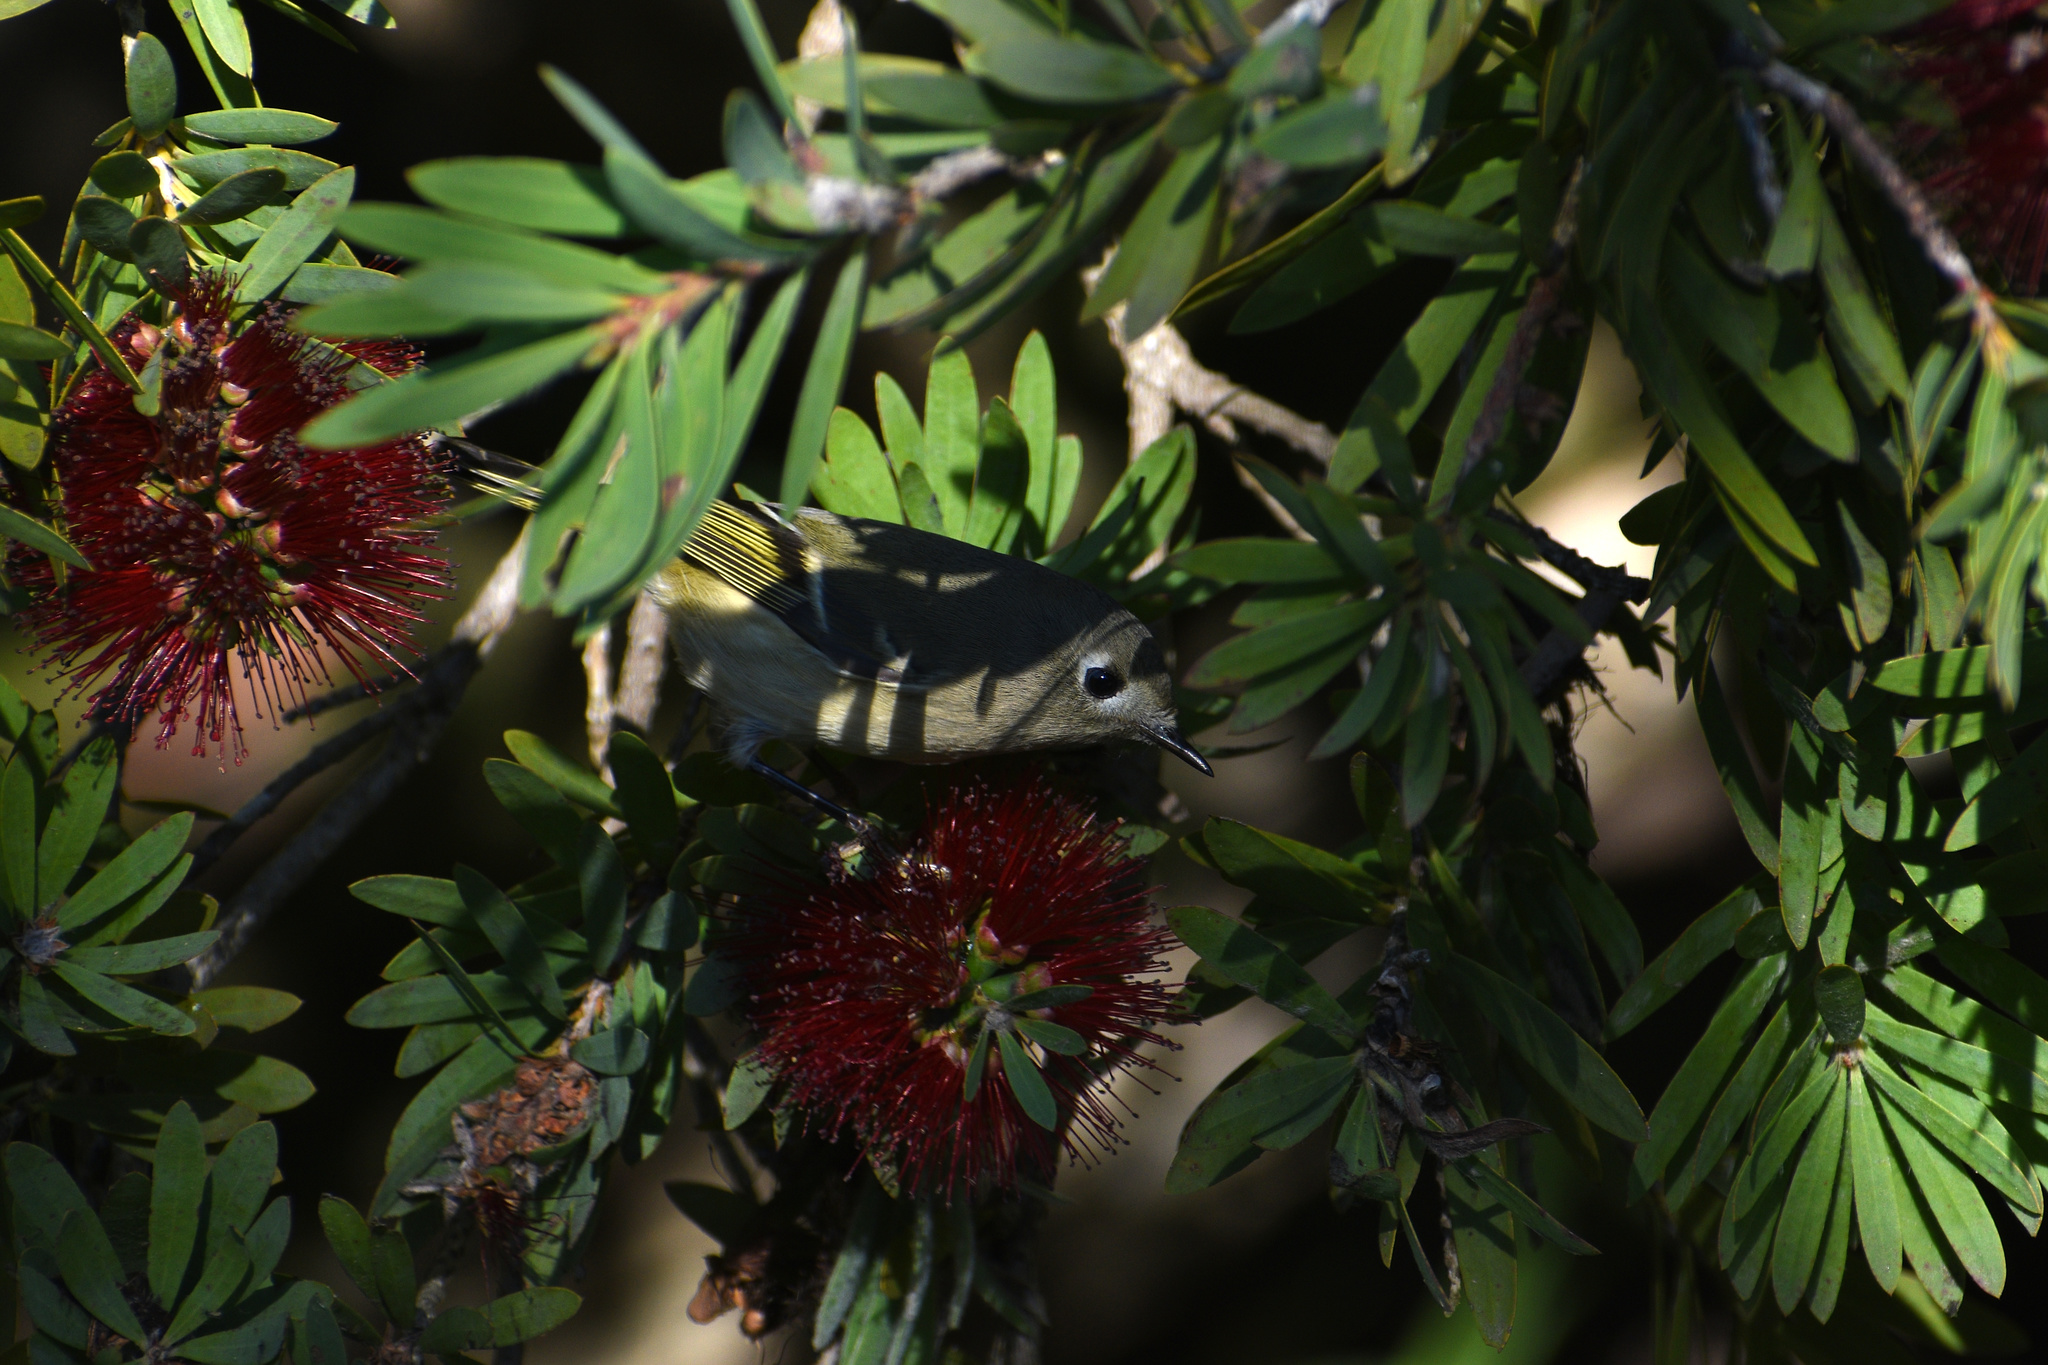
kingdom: Animalia
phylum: Chordata
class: Aves
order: Passeriformes
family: Regulidae
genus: Regulus
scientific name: Regulus calendula
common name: Ruby-crowned kinglet
